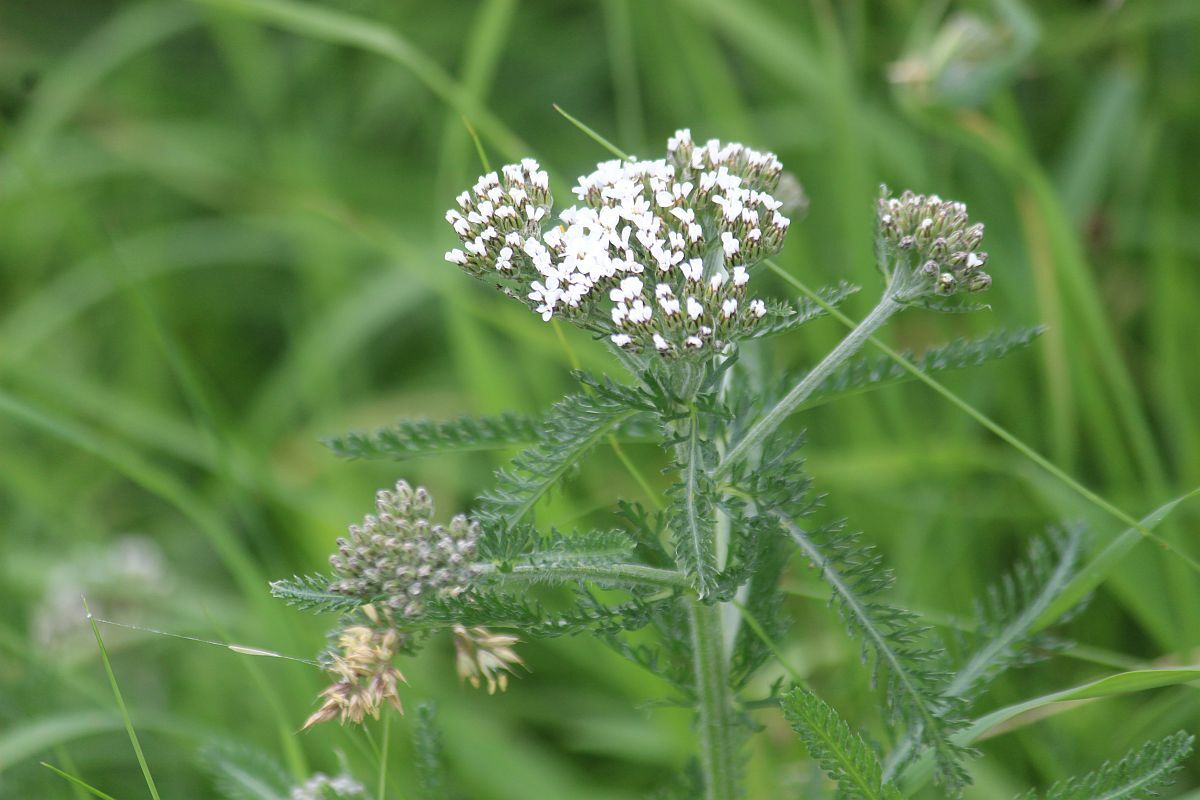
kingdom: Plantae
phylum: Tracheophyta
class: Magnoliopsida
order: Asterales
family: Asteraceae
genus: Achillea
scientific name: Achillea millefolium
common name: Yarrow
